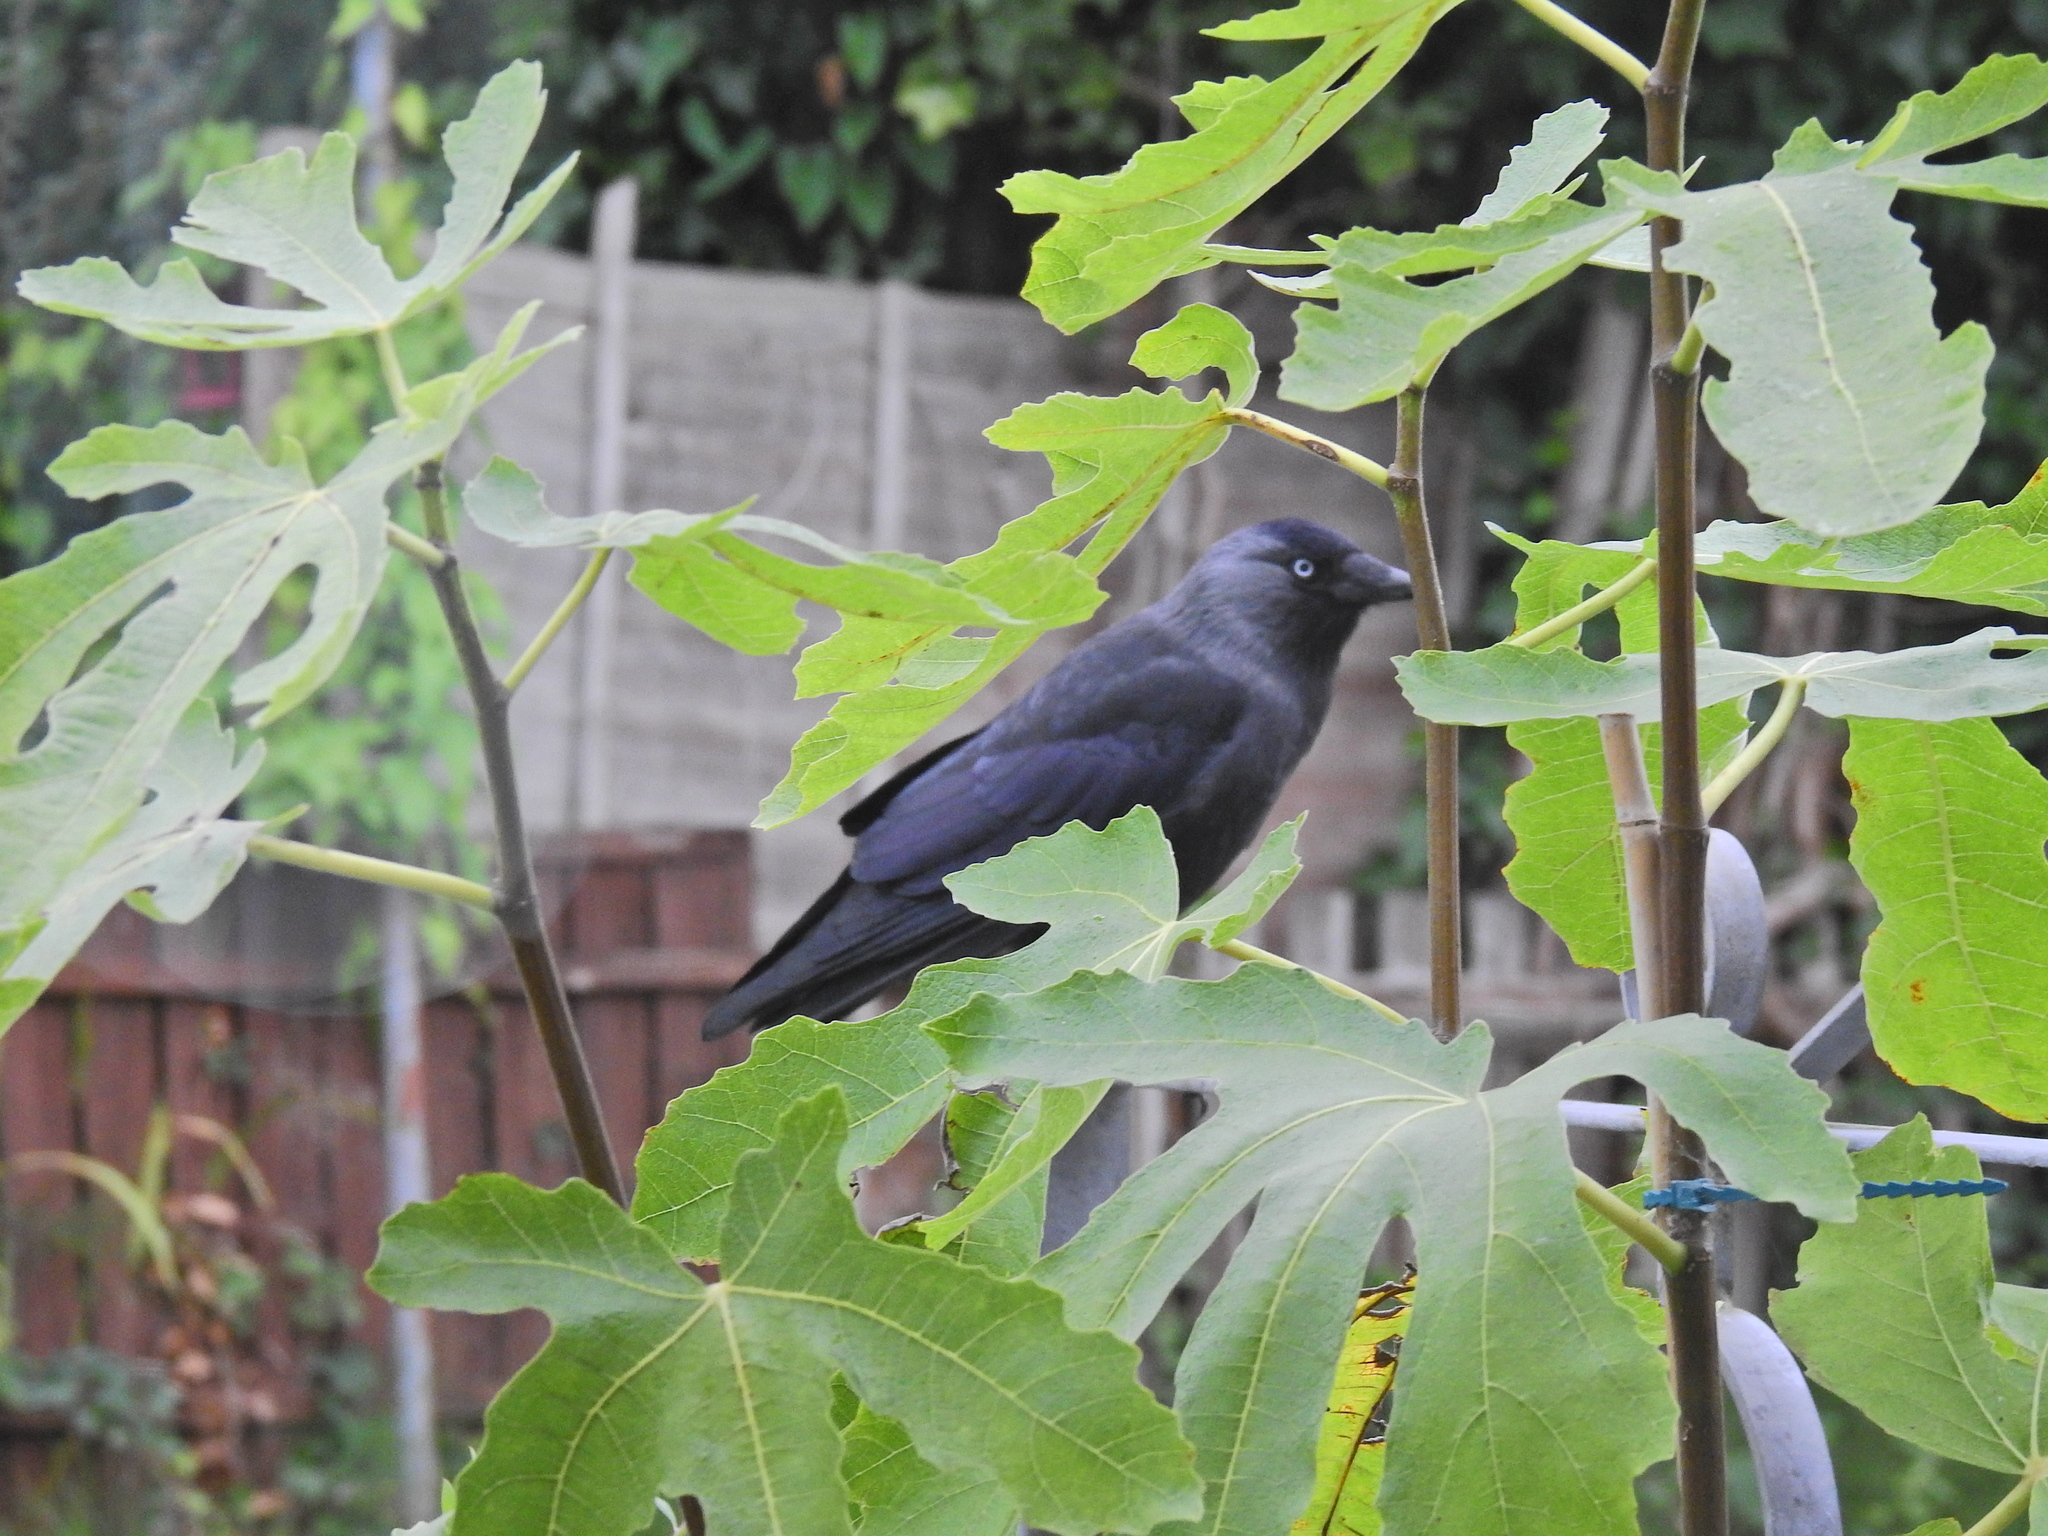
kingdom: Animalia
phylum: Chordata
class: Aves
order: Passeriformes
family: Corvidae
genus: Coloeus
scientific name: Coloeus monedula
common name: Western jackdaw
